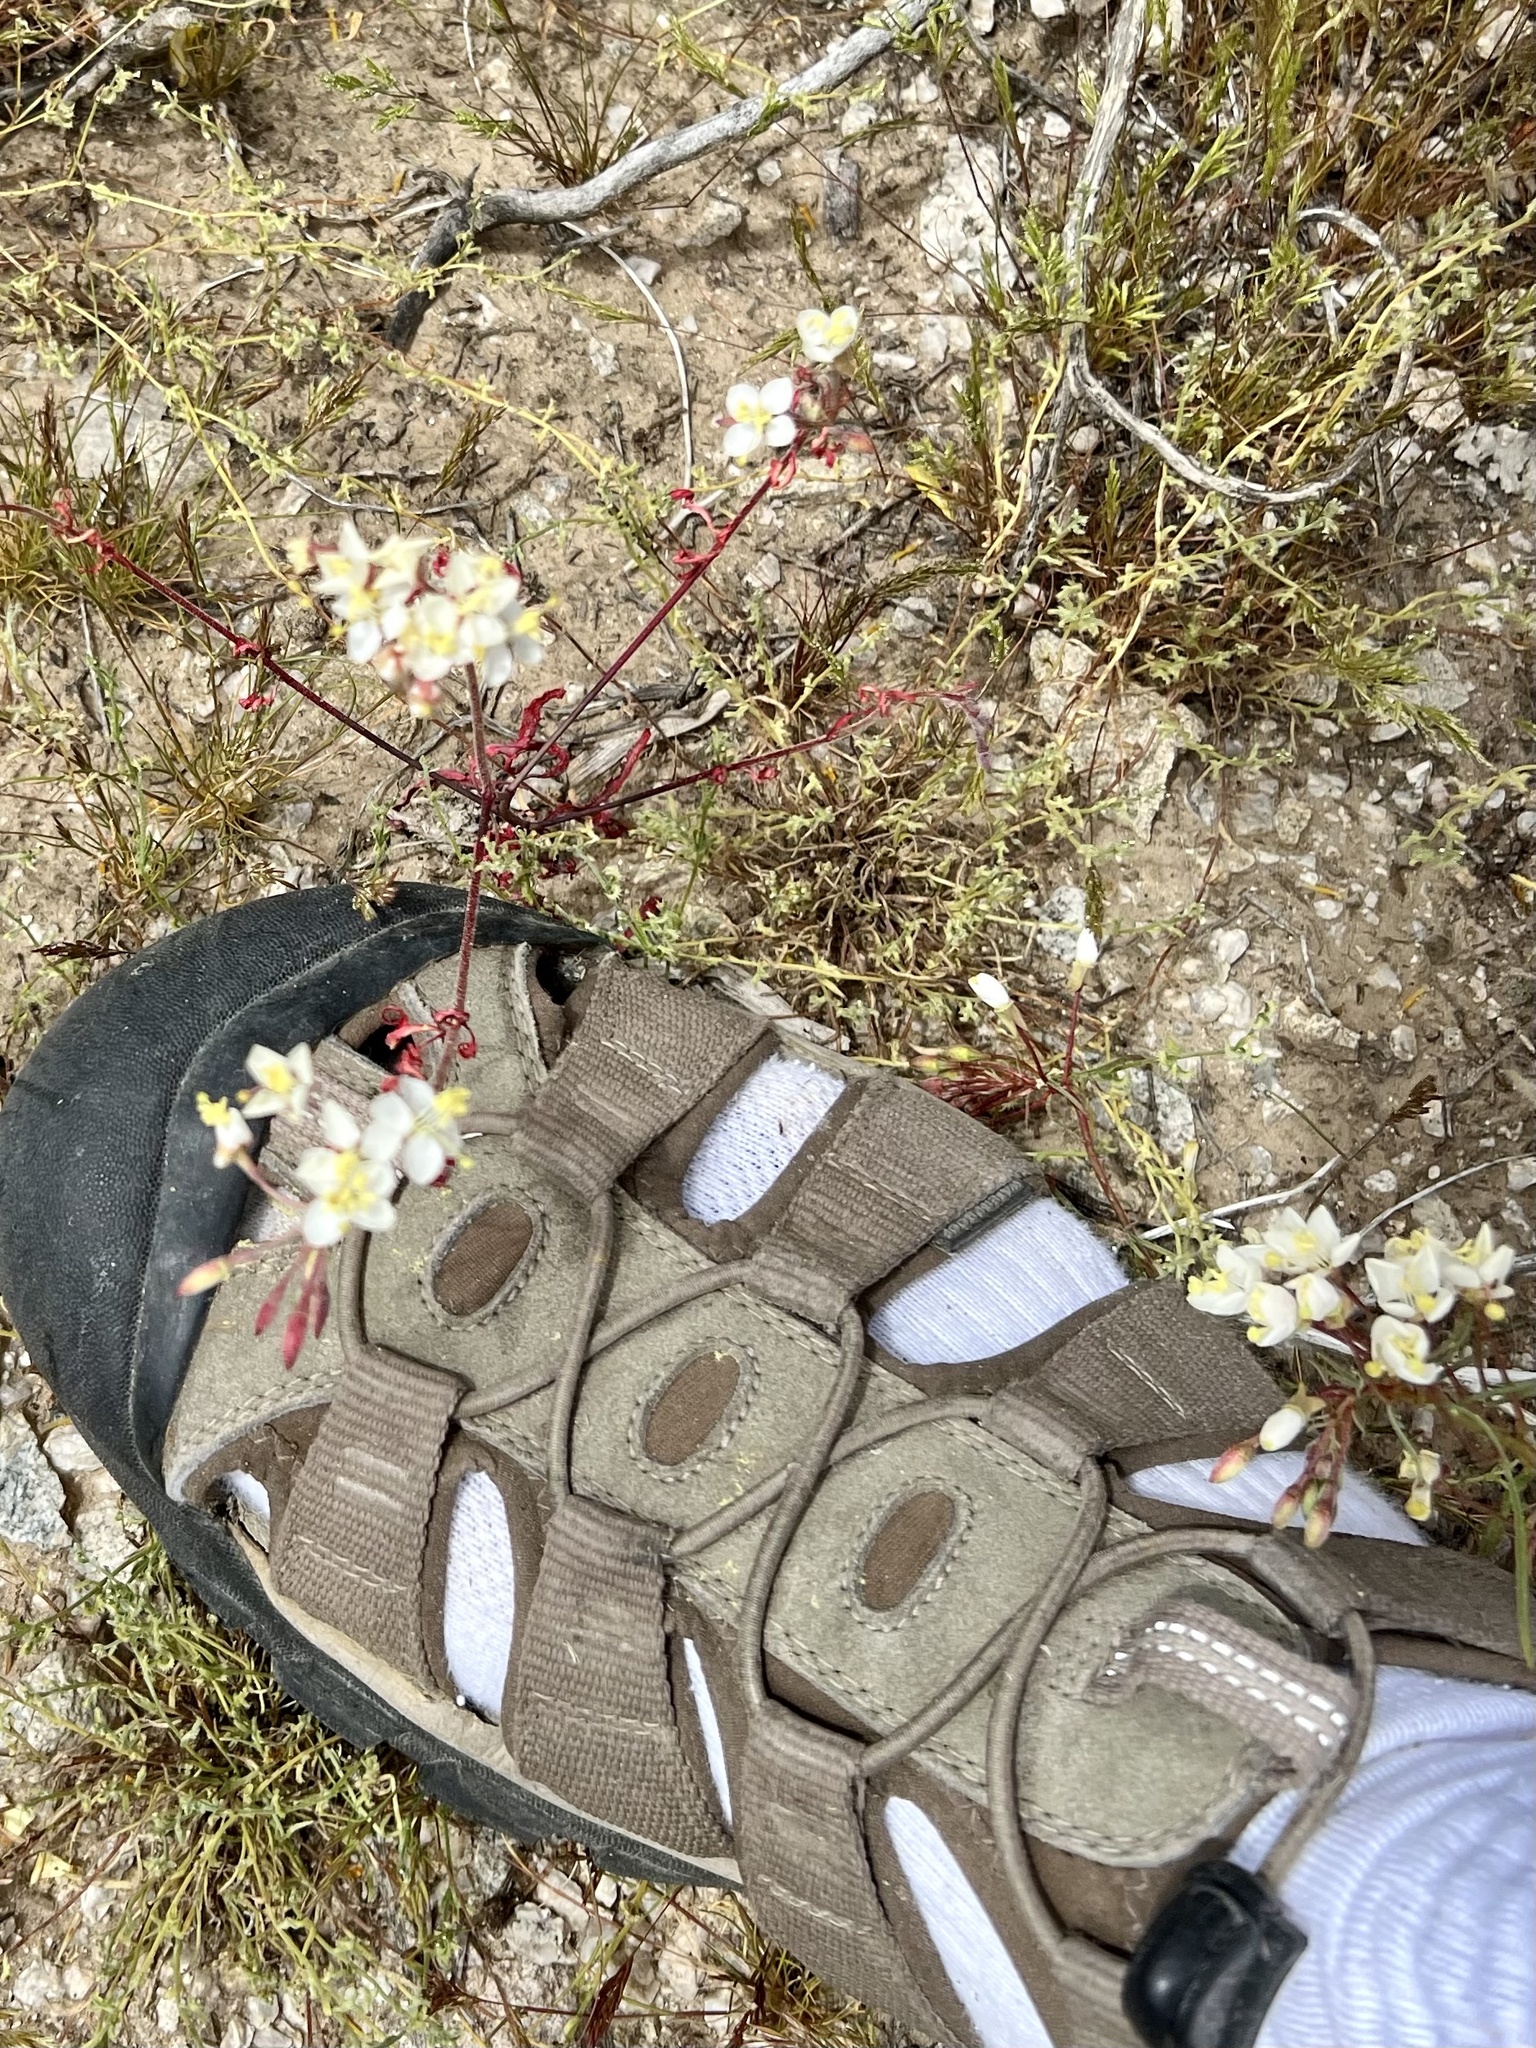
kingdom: Plantae
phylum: Tracheophyta
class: Magnoliopsida
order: Myrtales
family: Onagraceae
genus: Eremothera
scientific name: Eremothera refracta
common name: Narrowleaf suncup
